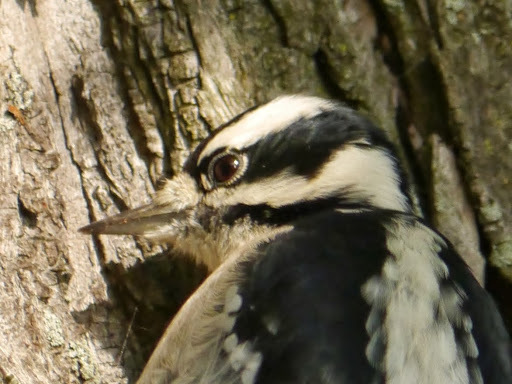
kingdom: Animalia
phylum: Chordata
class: Aves
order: Piciformes
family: Picidae
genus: Dryobates
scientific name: Dryobates pubescens
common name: Downy woodpecker
